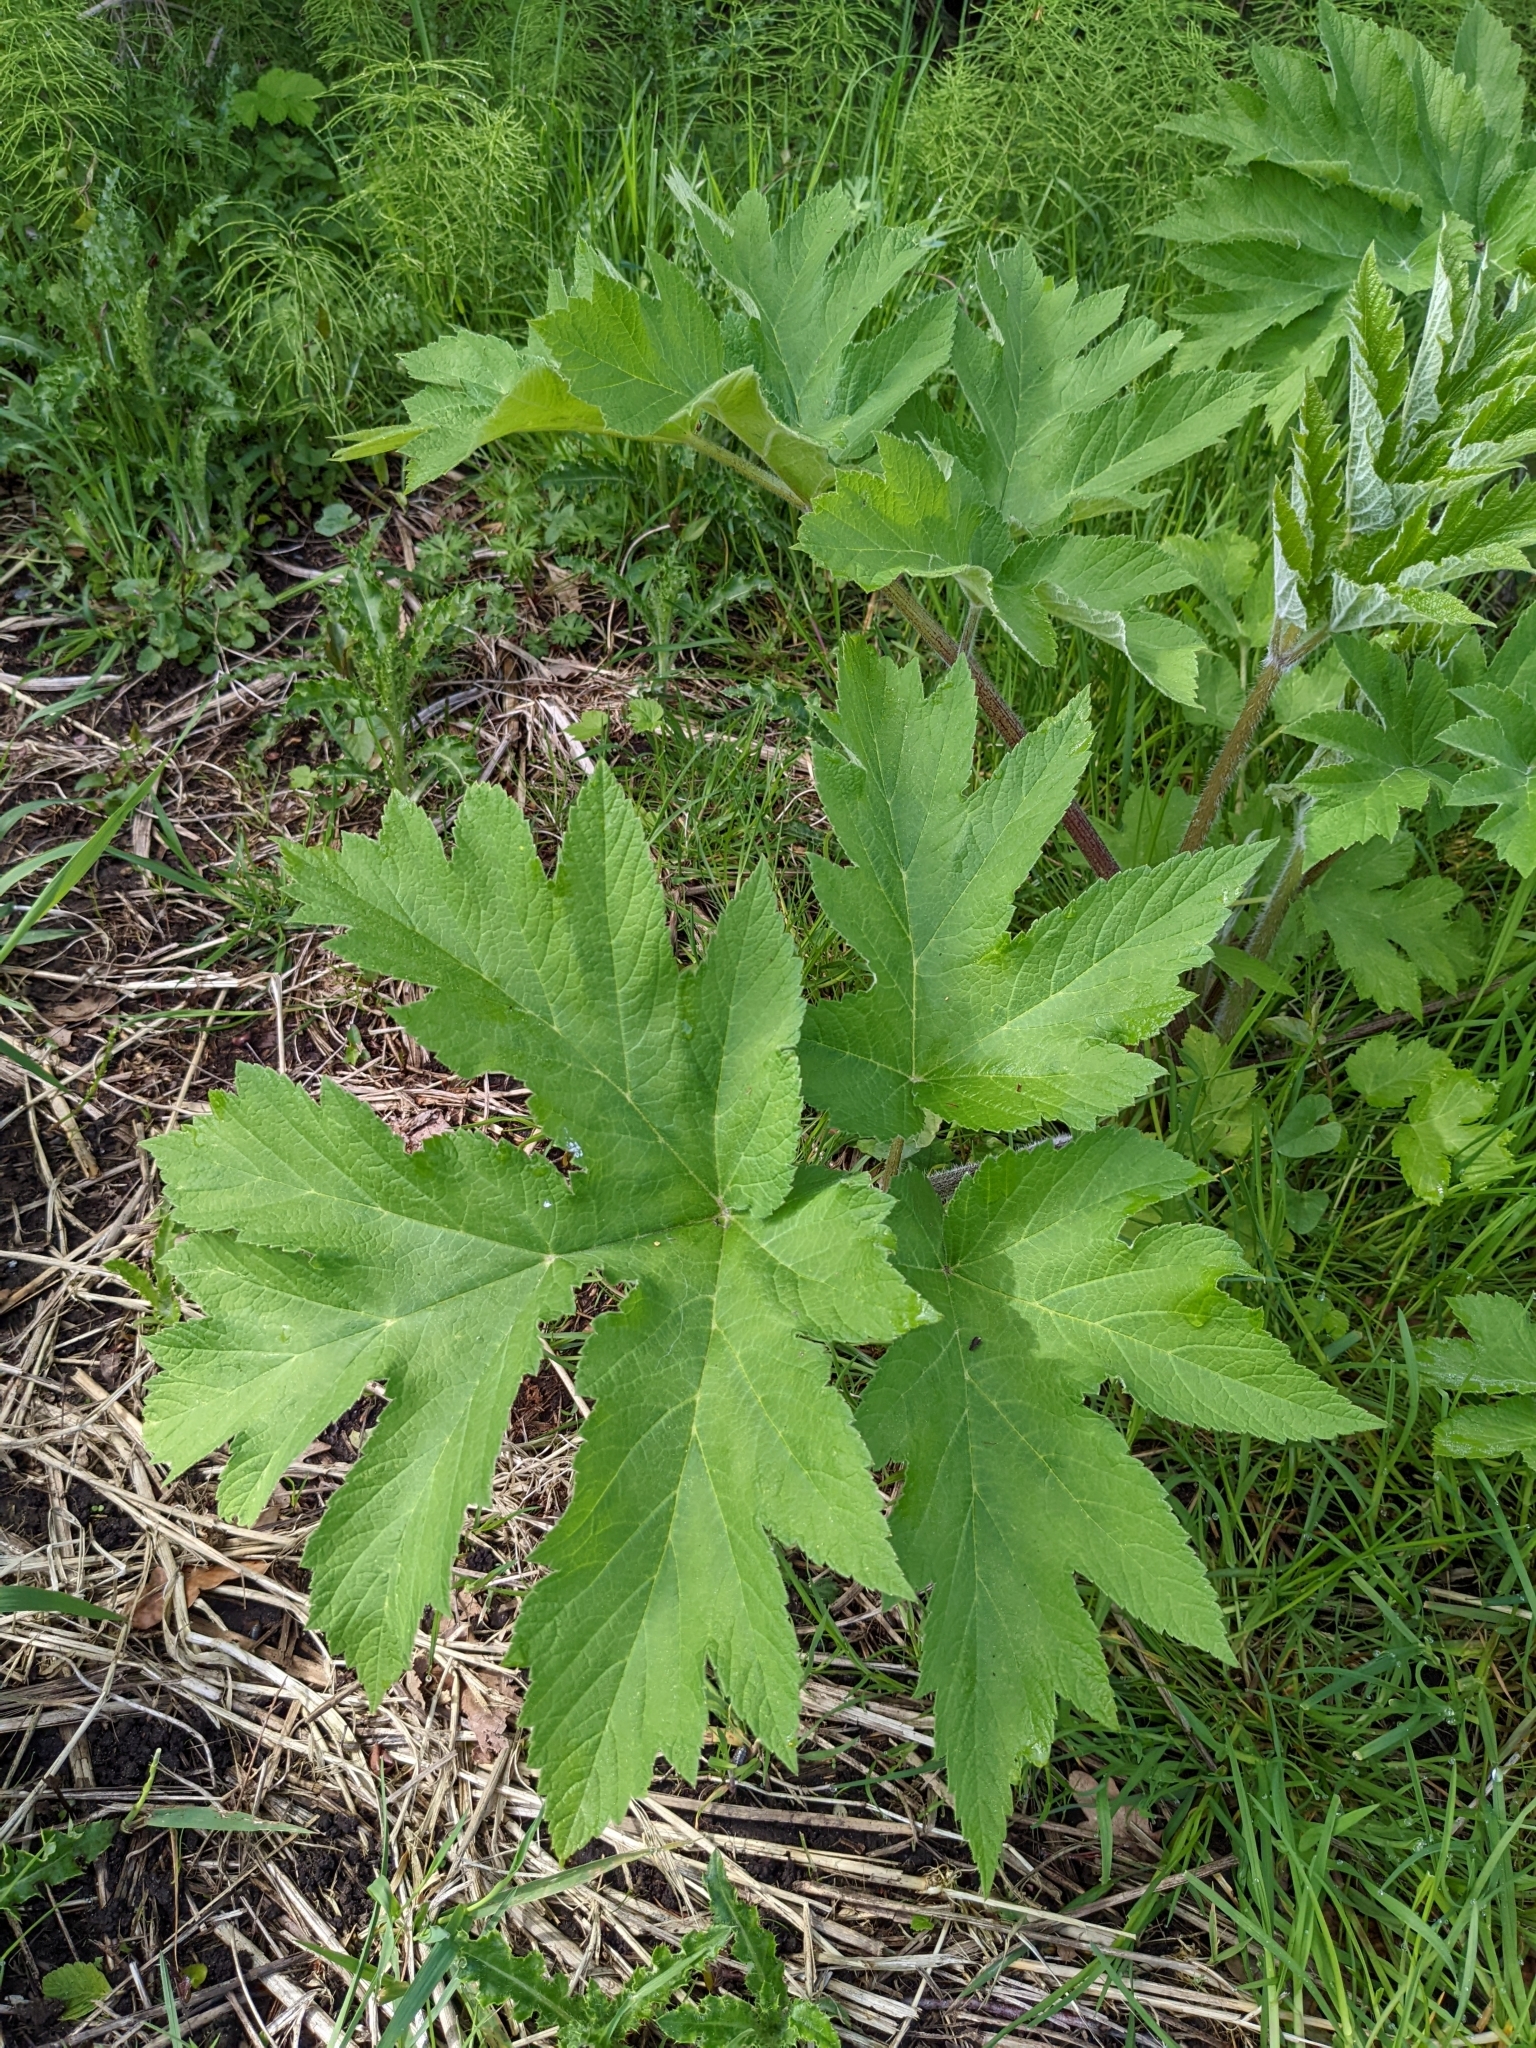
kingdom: Plantae
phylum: Tracheophyta
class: Magnoliopsida
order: Apiales
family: Apiaceae
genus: Heracleum
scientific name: Heracleum maximum
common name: American cow parsnip
